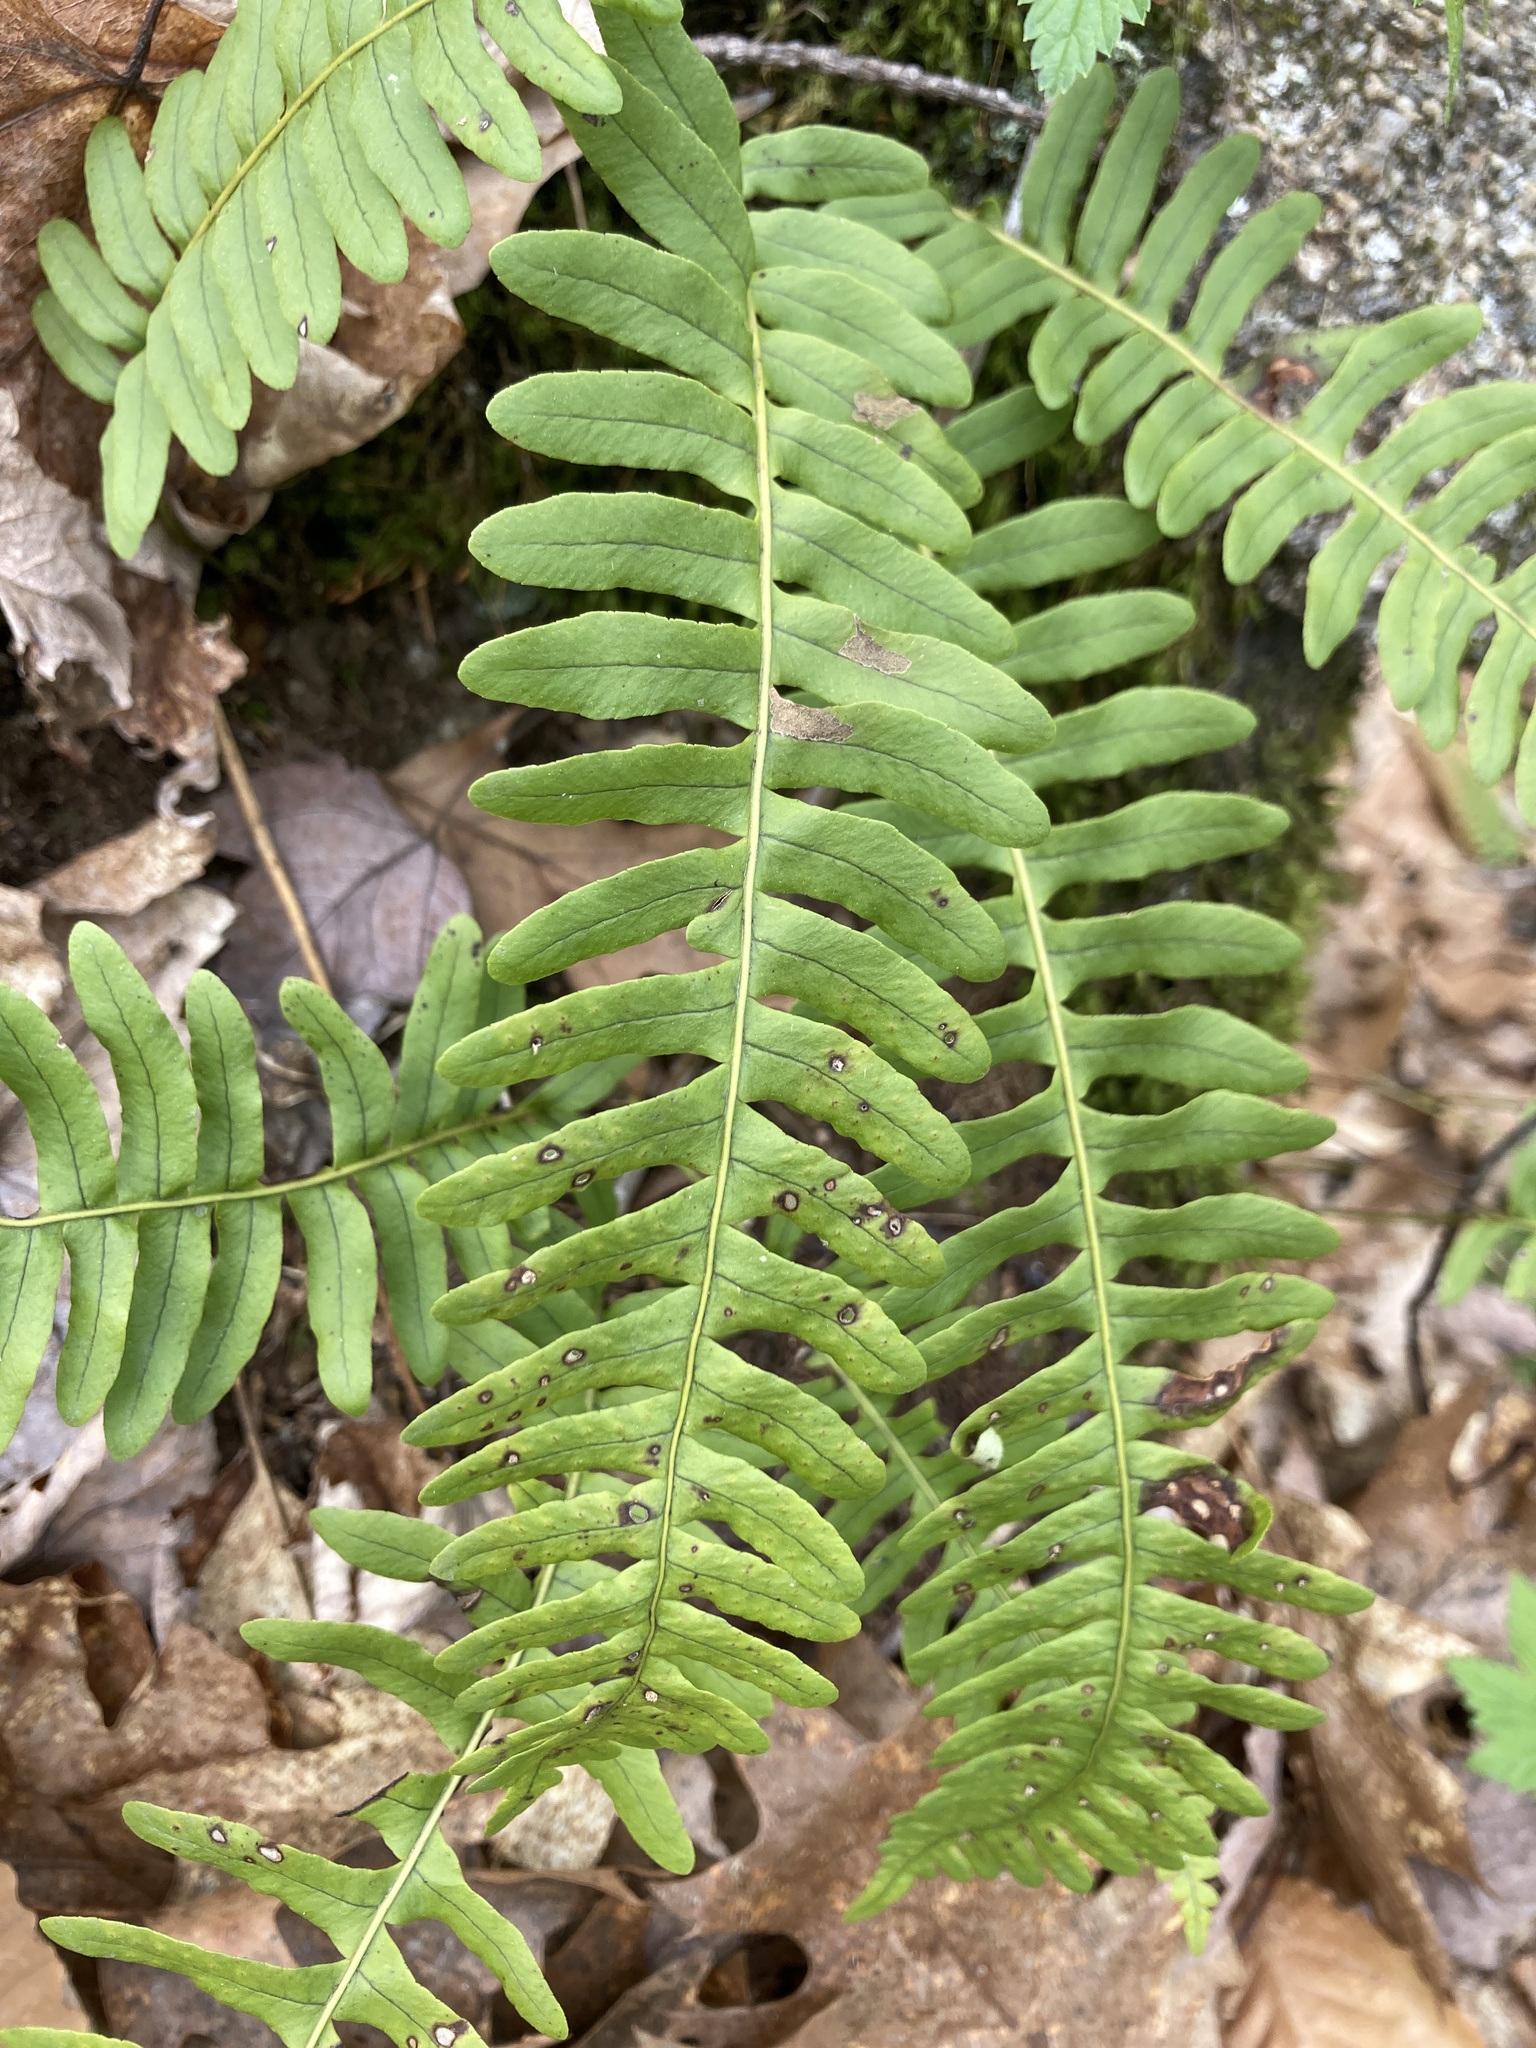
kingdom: Plantae
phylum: Tracheophyta
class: Polypodiopsida
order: Polypodiales
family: Polypodiaceae
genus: Polypodium
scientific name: Polypodium virginianum
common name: American wall fern
